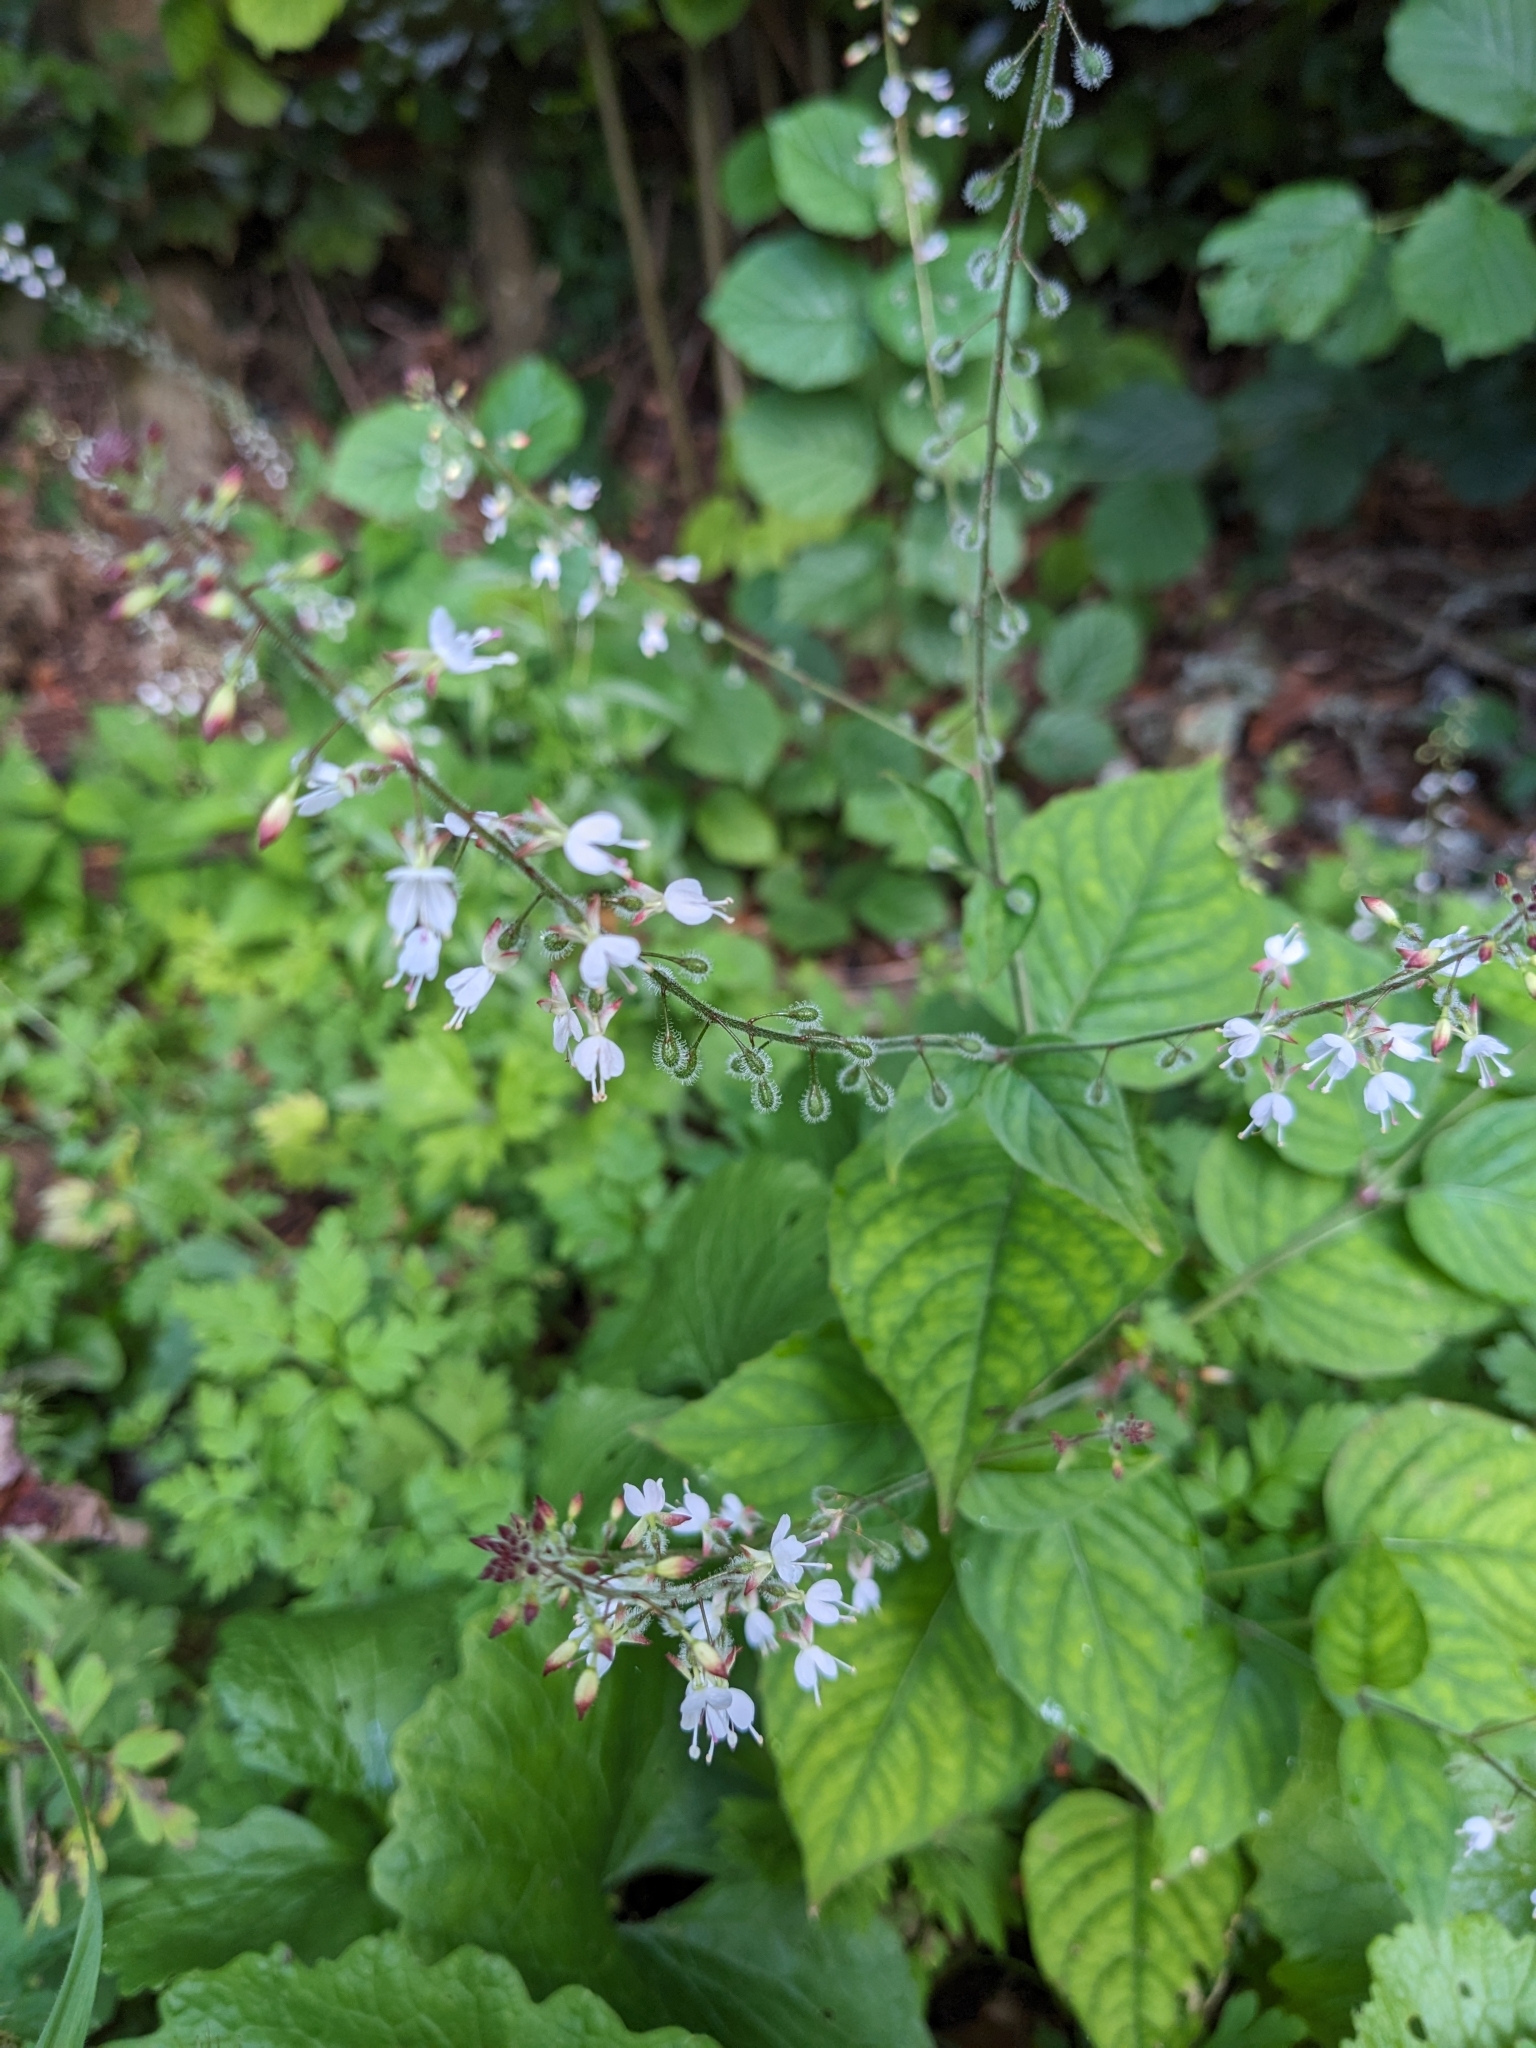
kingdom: Plantae
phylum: Tracheophyta
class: Magnoliopsida
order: Myrtales
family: Onagraceae
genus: Circaea
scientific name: Circaea lutetiana
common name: Enchanter's-nightshade
